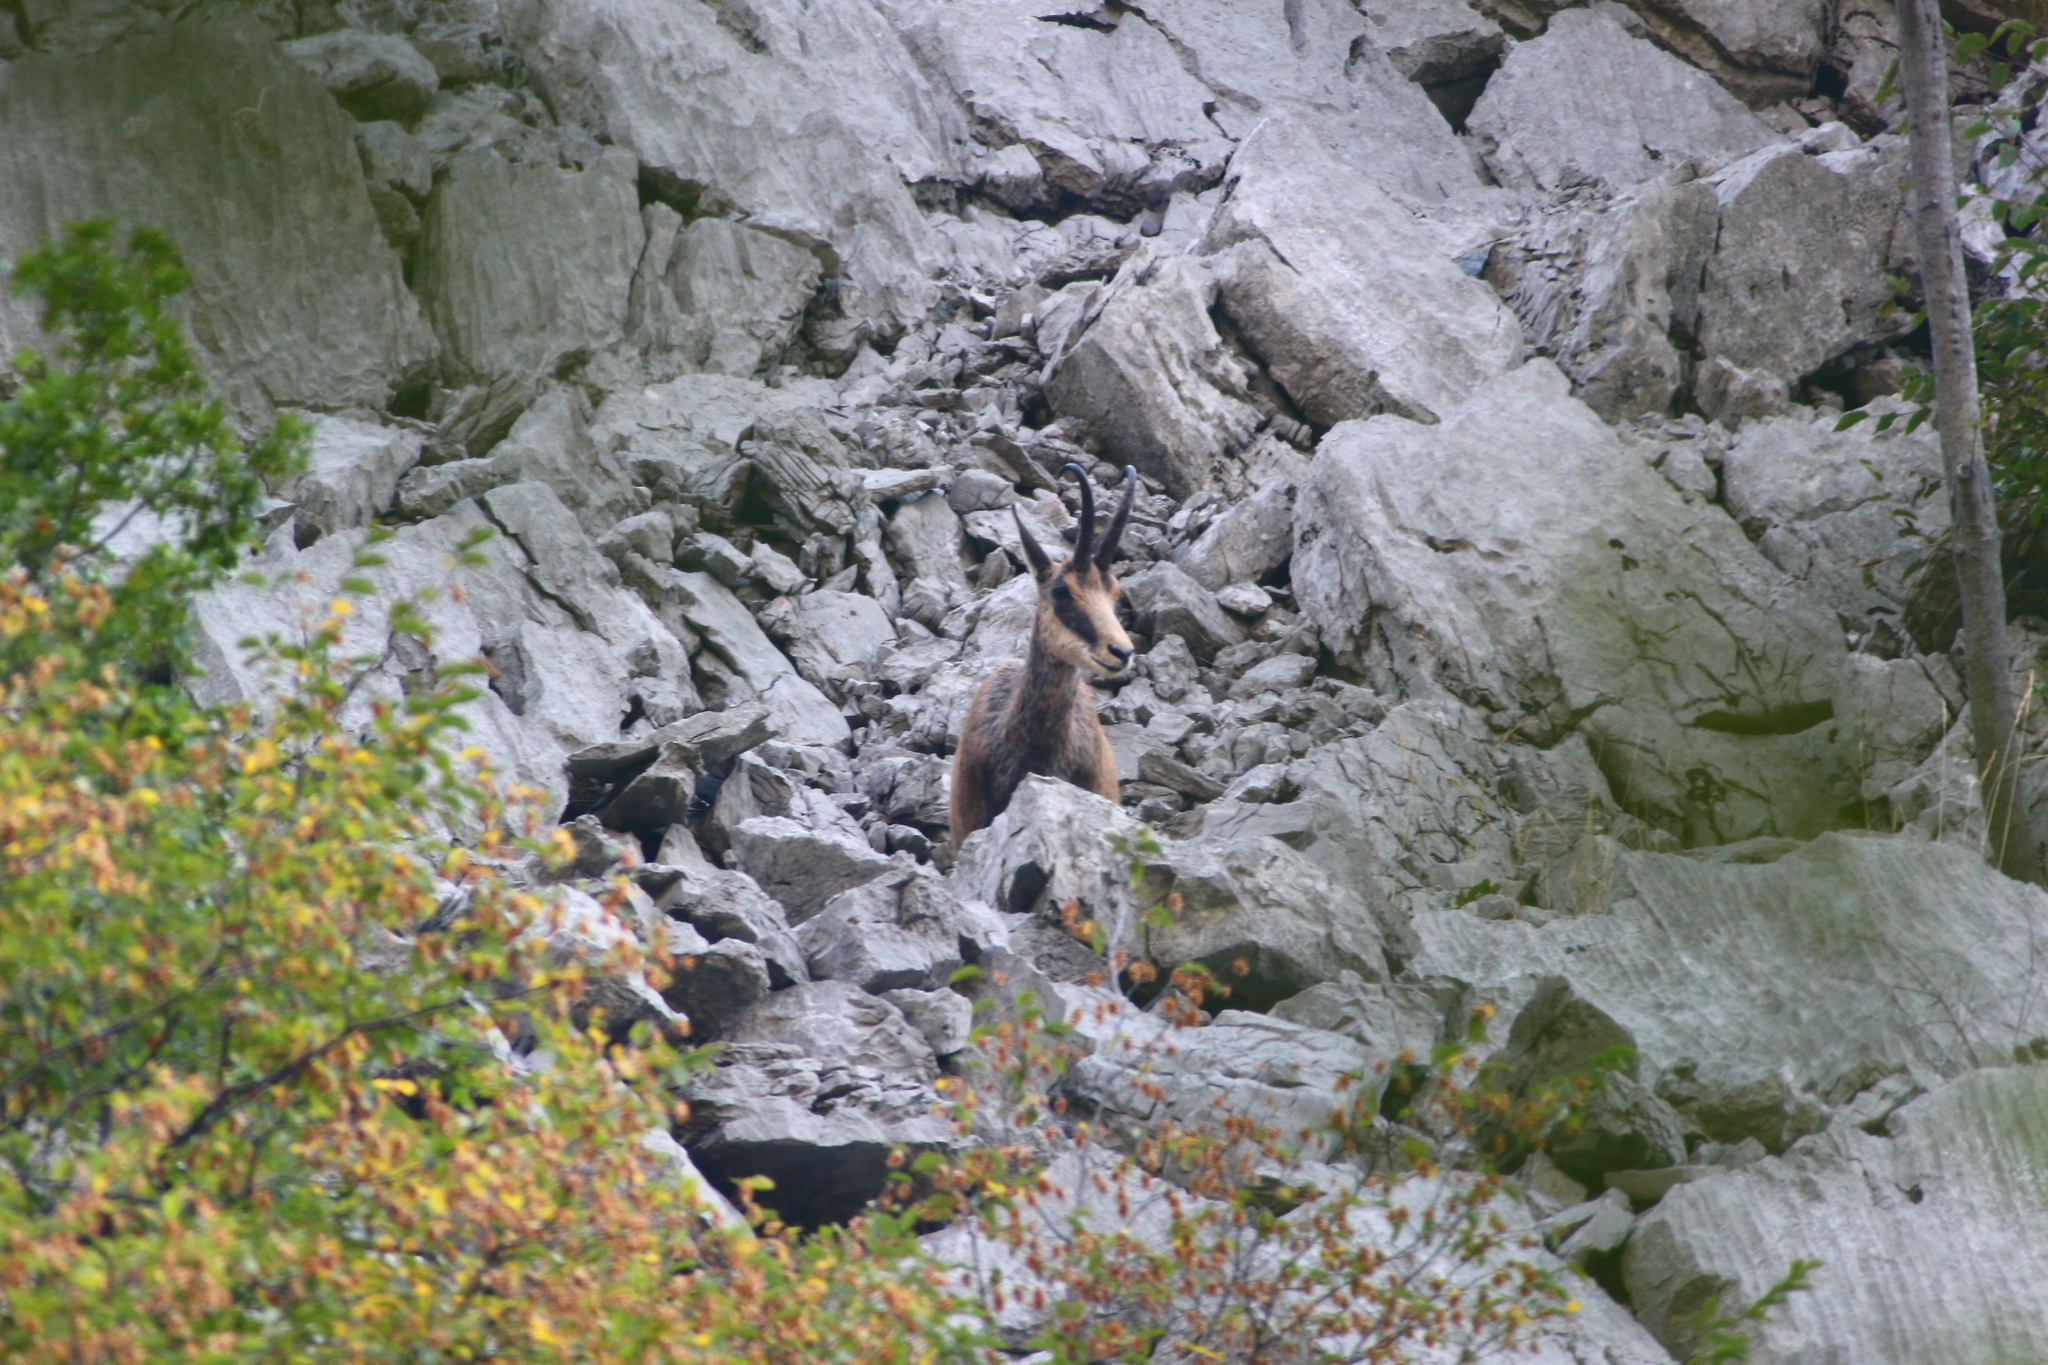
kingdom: Animalia
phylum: Chordata
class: Mammalia
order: Artiodactyla
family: Bovidae
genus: Rupicapra
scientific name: Rupicapra rupicapra
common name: Chamois
